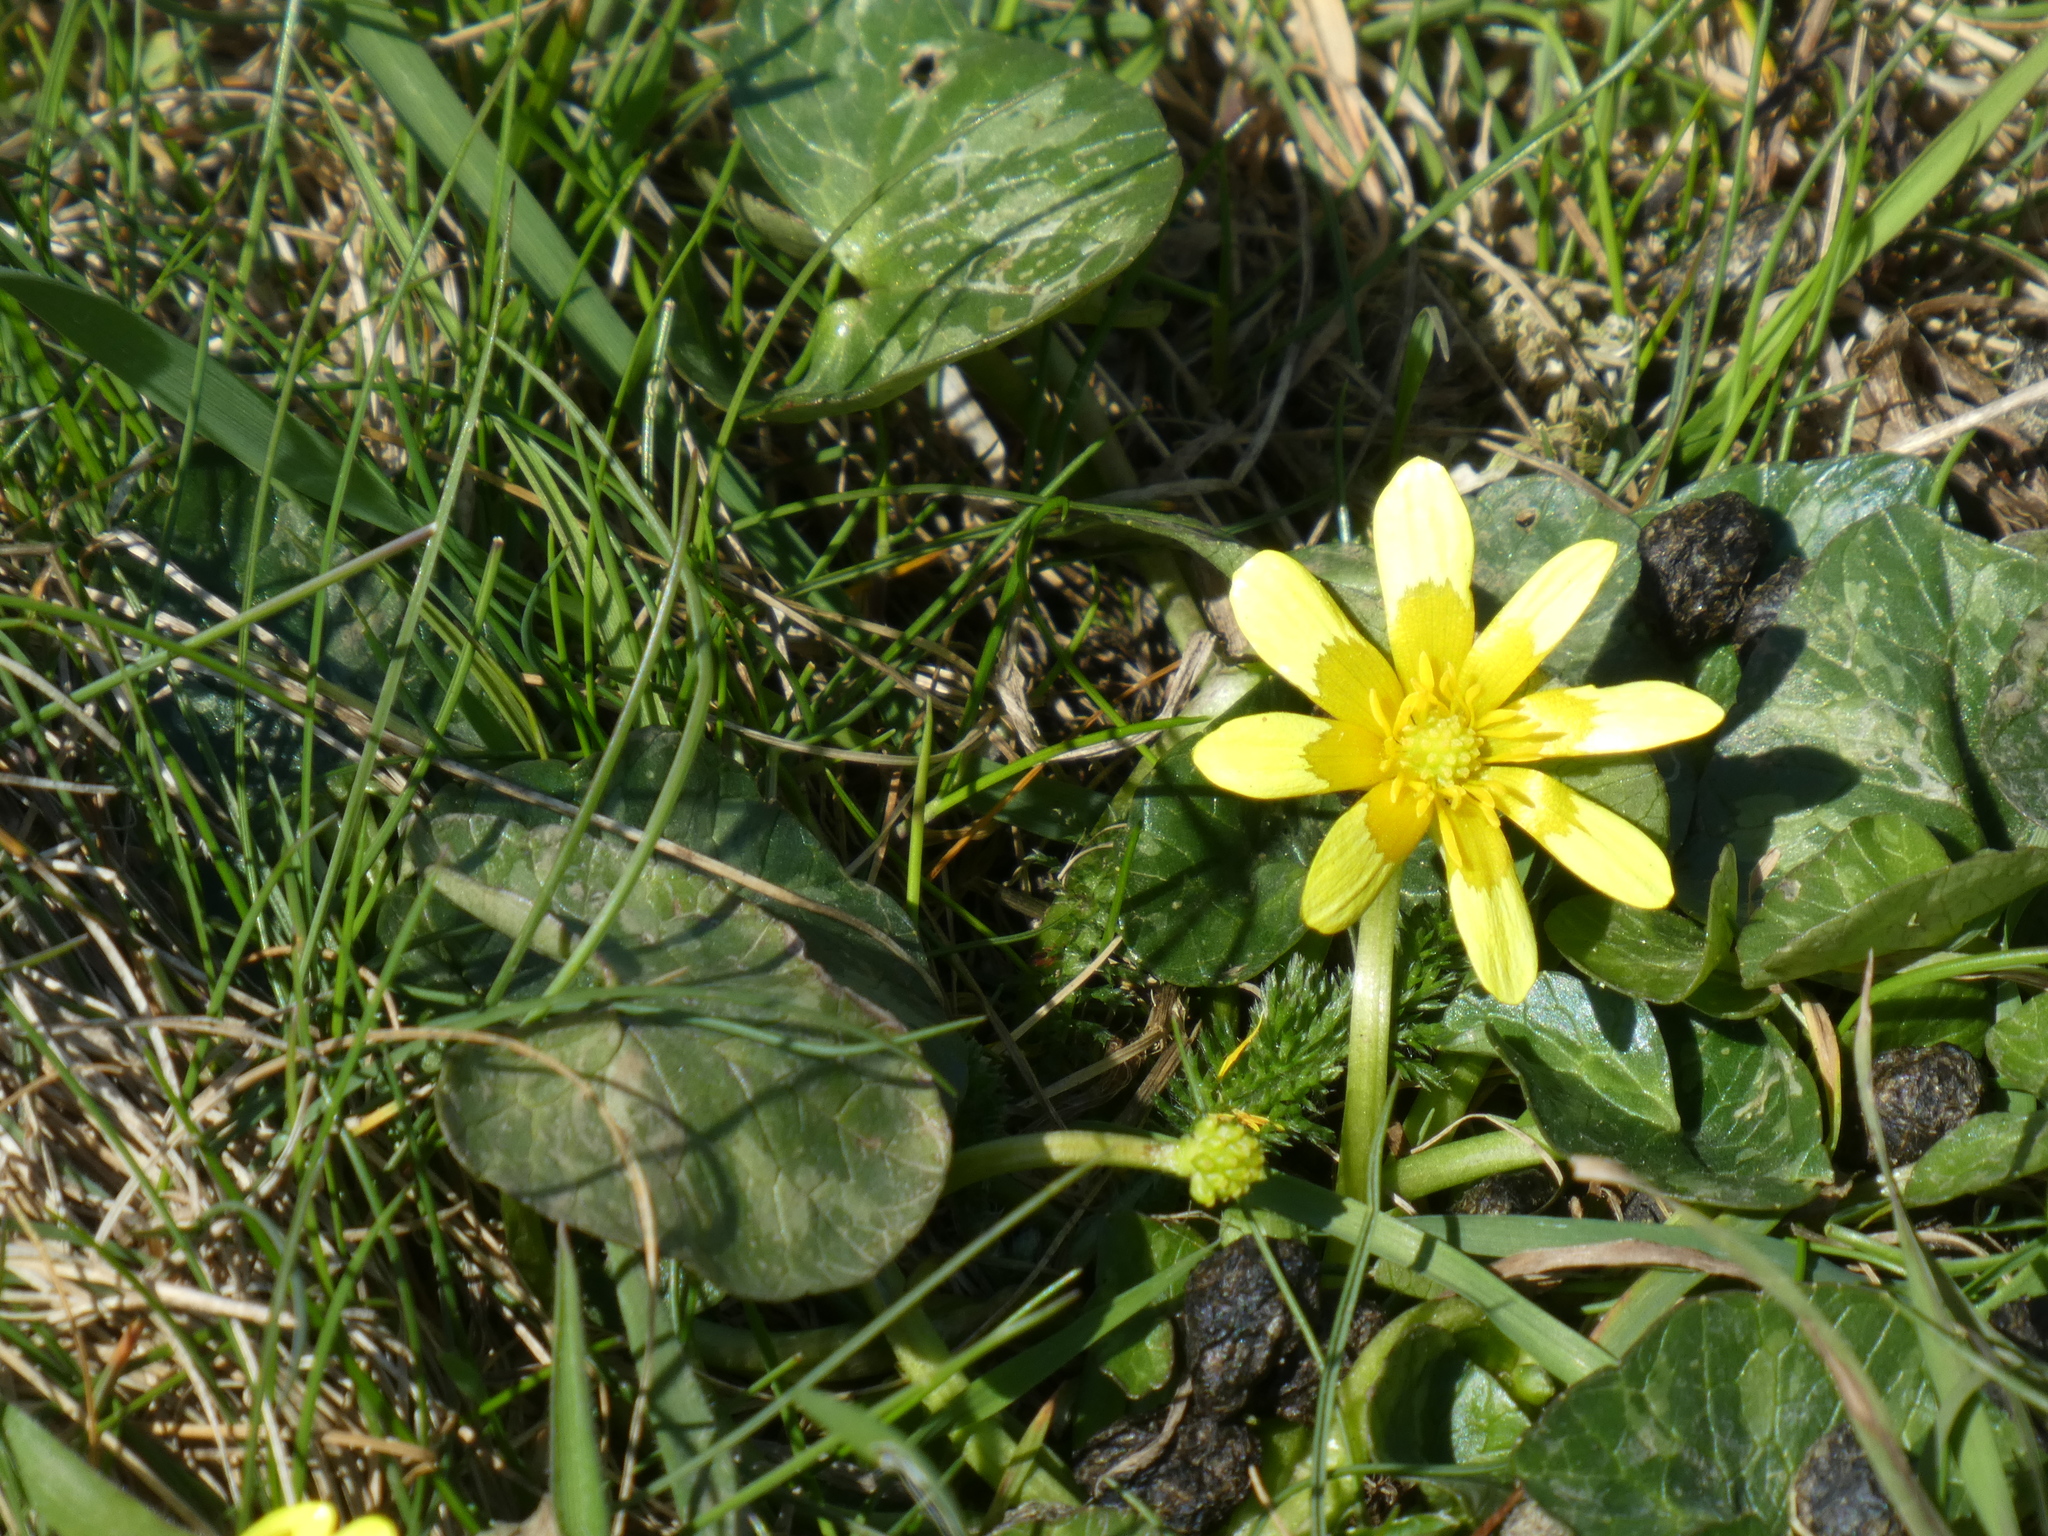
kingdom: Plantae
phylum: Tracheophyta
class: Magnoliopsida
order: Ranunculales
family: Ranunculaceae
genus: Ficaria
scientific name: Ficaria verna
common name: Lesser celandine
